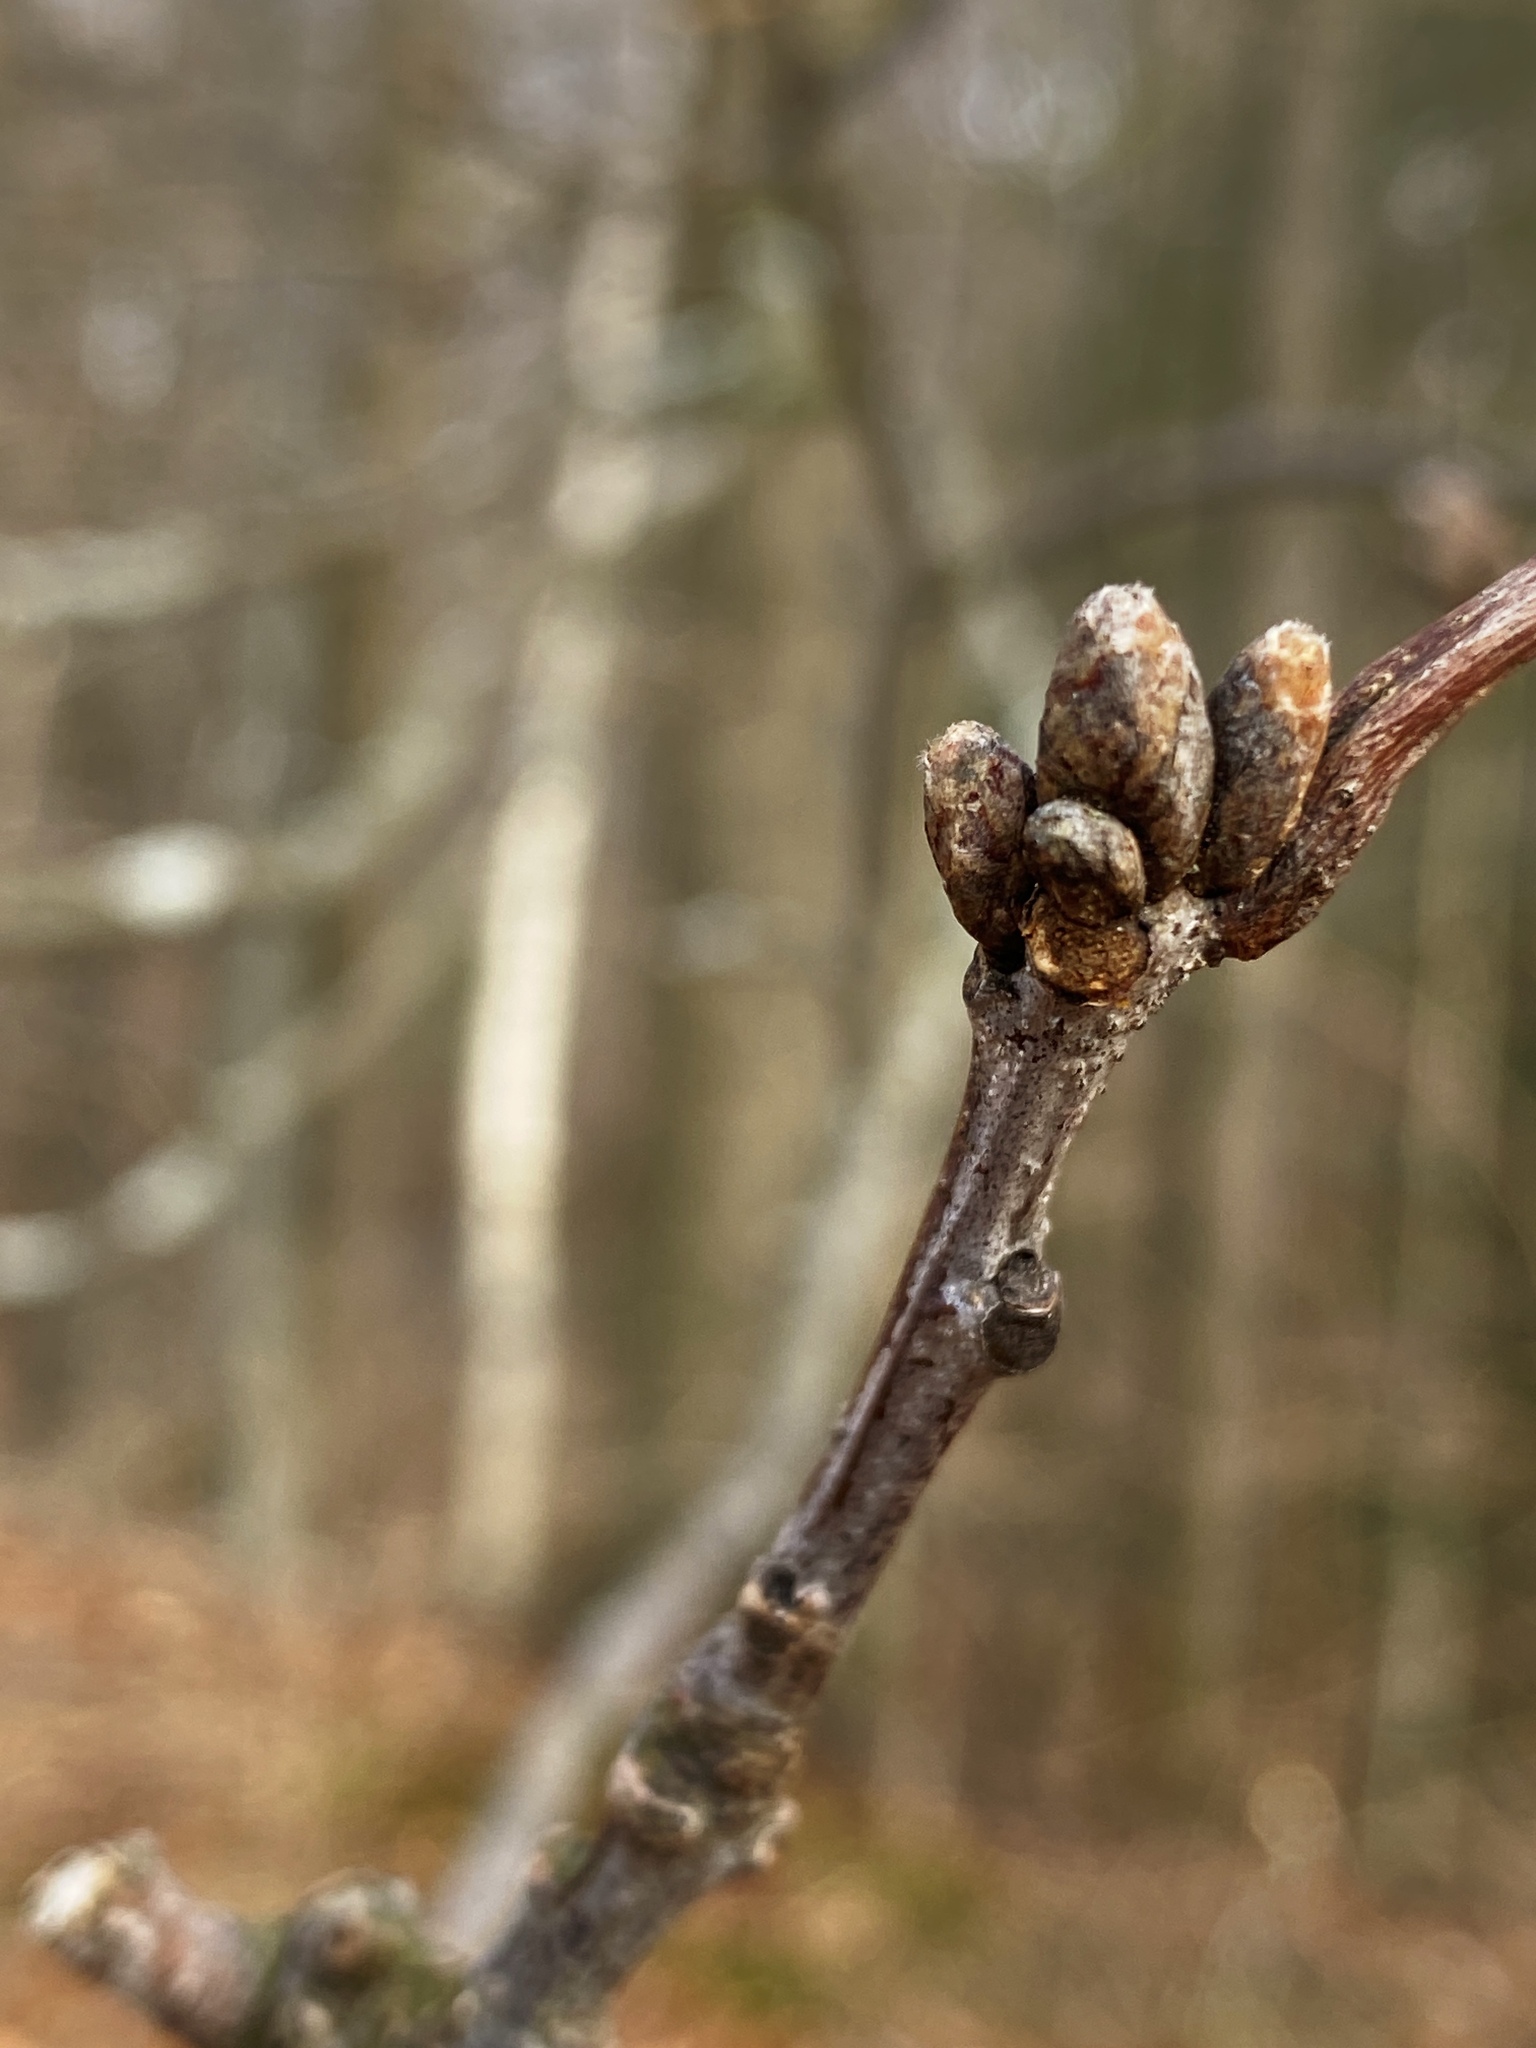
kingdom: Plantae
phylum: Tracheophyta
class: Magnoliopsida
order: Fagales
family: Fagaceae
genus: Quercus
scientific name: Quercus rubra
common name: Red oak
